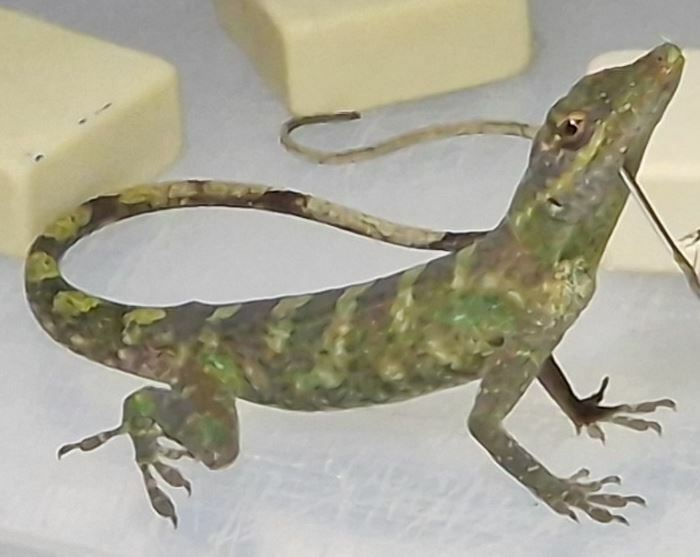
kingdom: Animalia
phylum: Chordata
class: Squamata
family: Dactyloidae
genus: Anolis
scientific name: Anolis punctatus
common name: Amazon green anole
